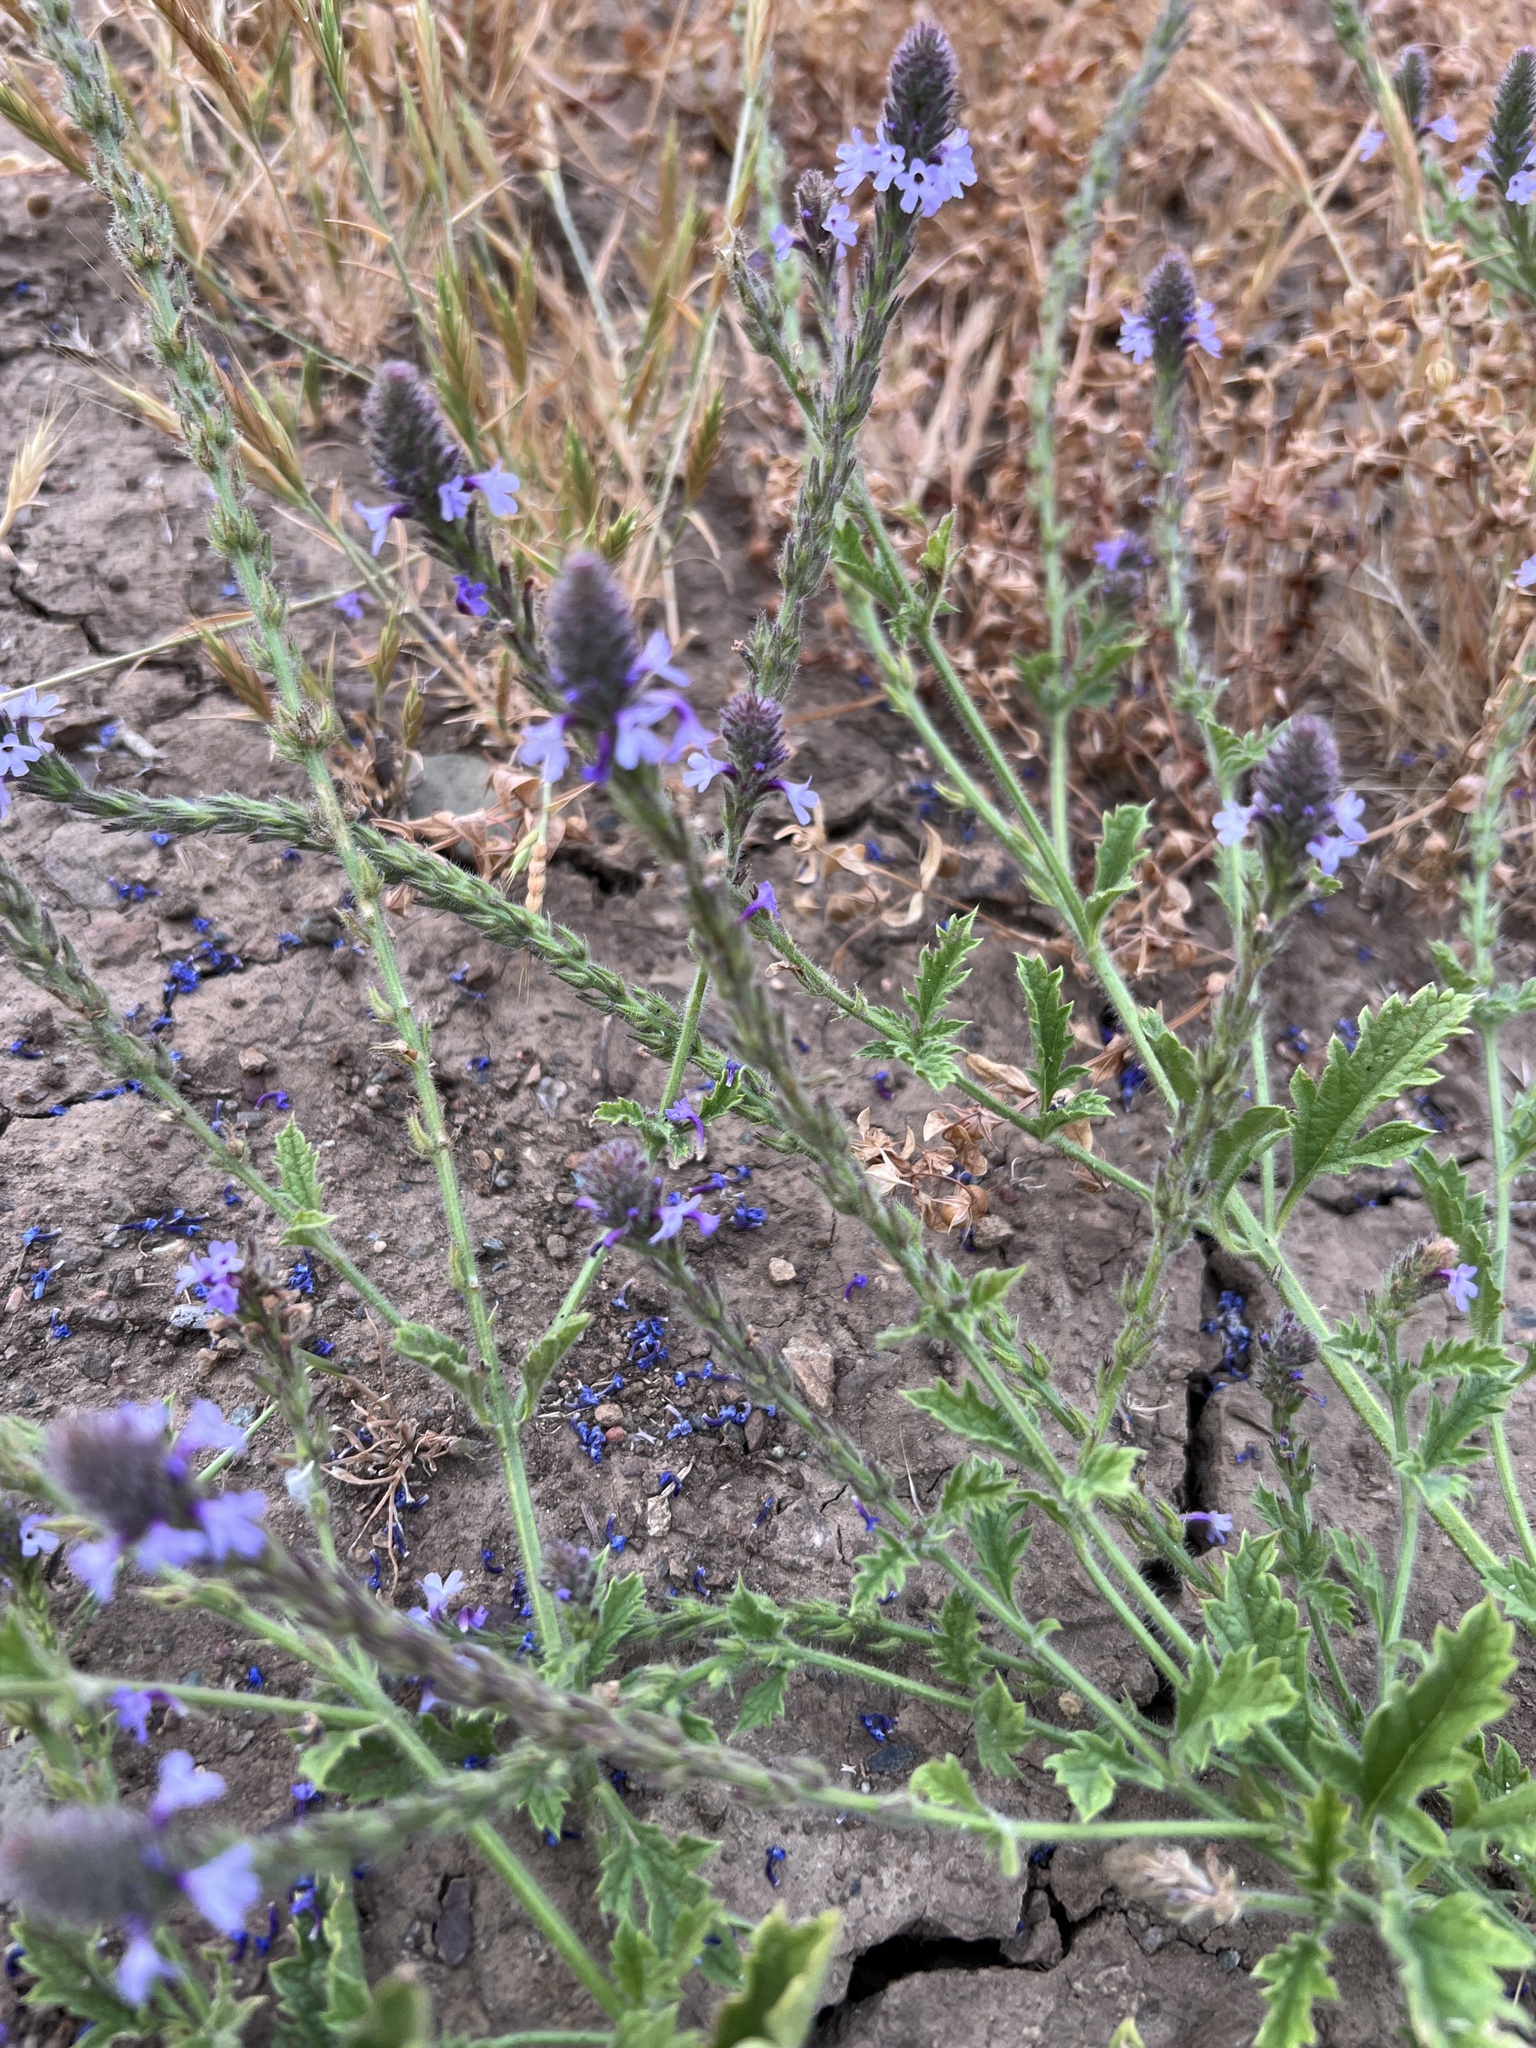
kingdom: Plantae
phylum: Tracheophyta
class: Magnoliopsida
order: Lamiales
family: Verbenaceae
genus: Verbena
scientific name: Verbena lasiostachys
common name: Vervain
